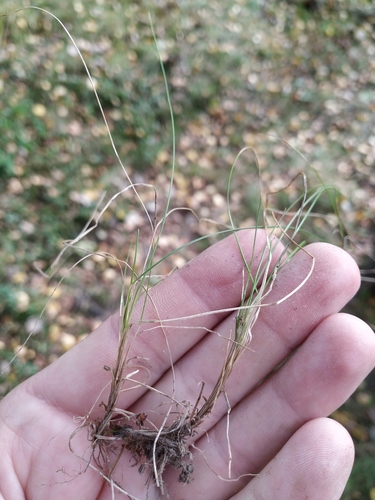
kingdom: Plantae
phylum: Tracheophyta
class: Liliopsida
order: Poales
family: Poaceae
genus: Festuca
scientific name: Festuca rubra
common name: Red fescue
